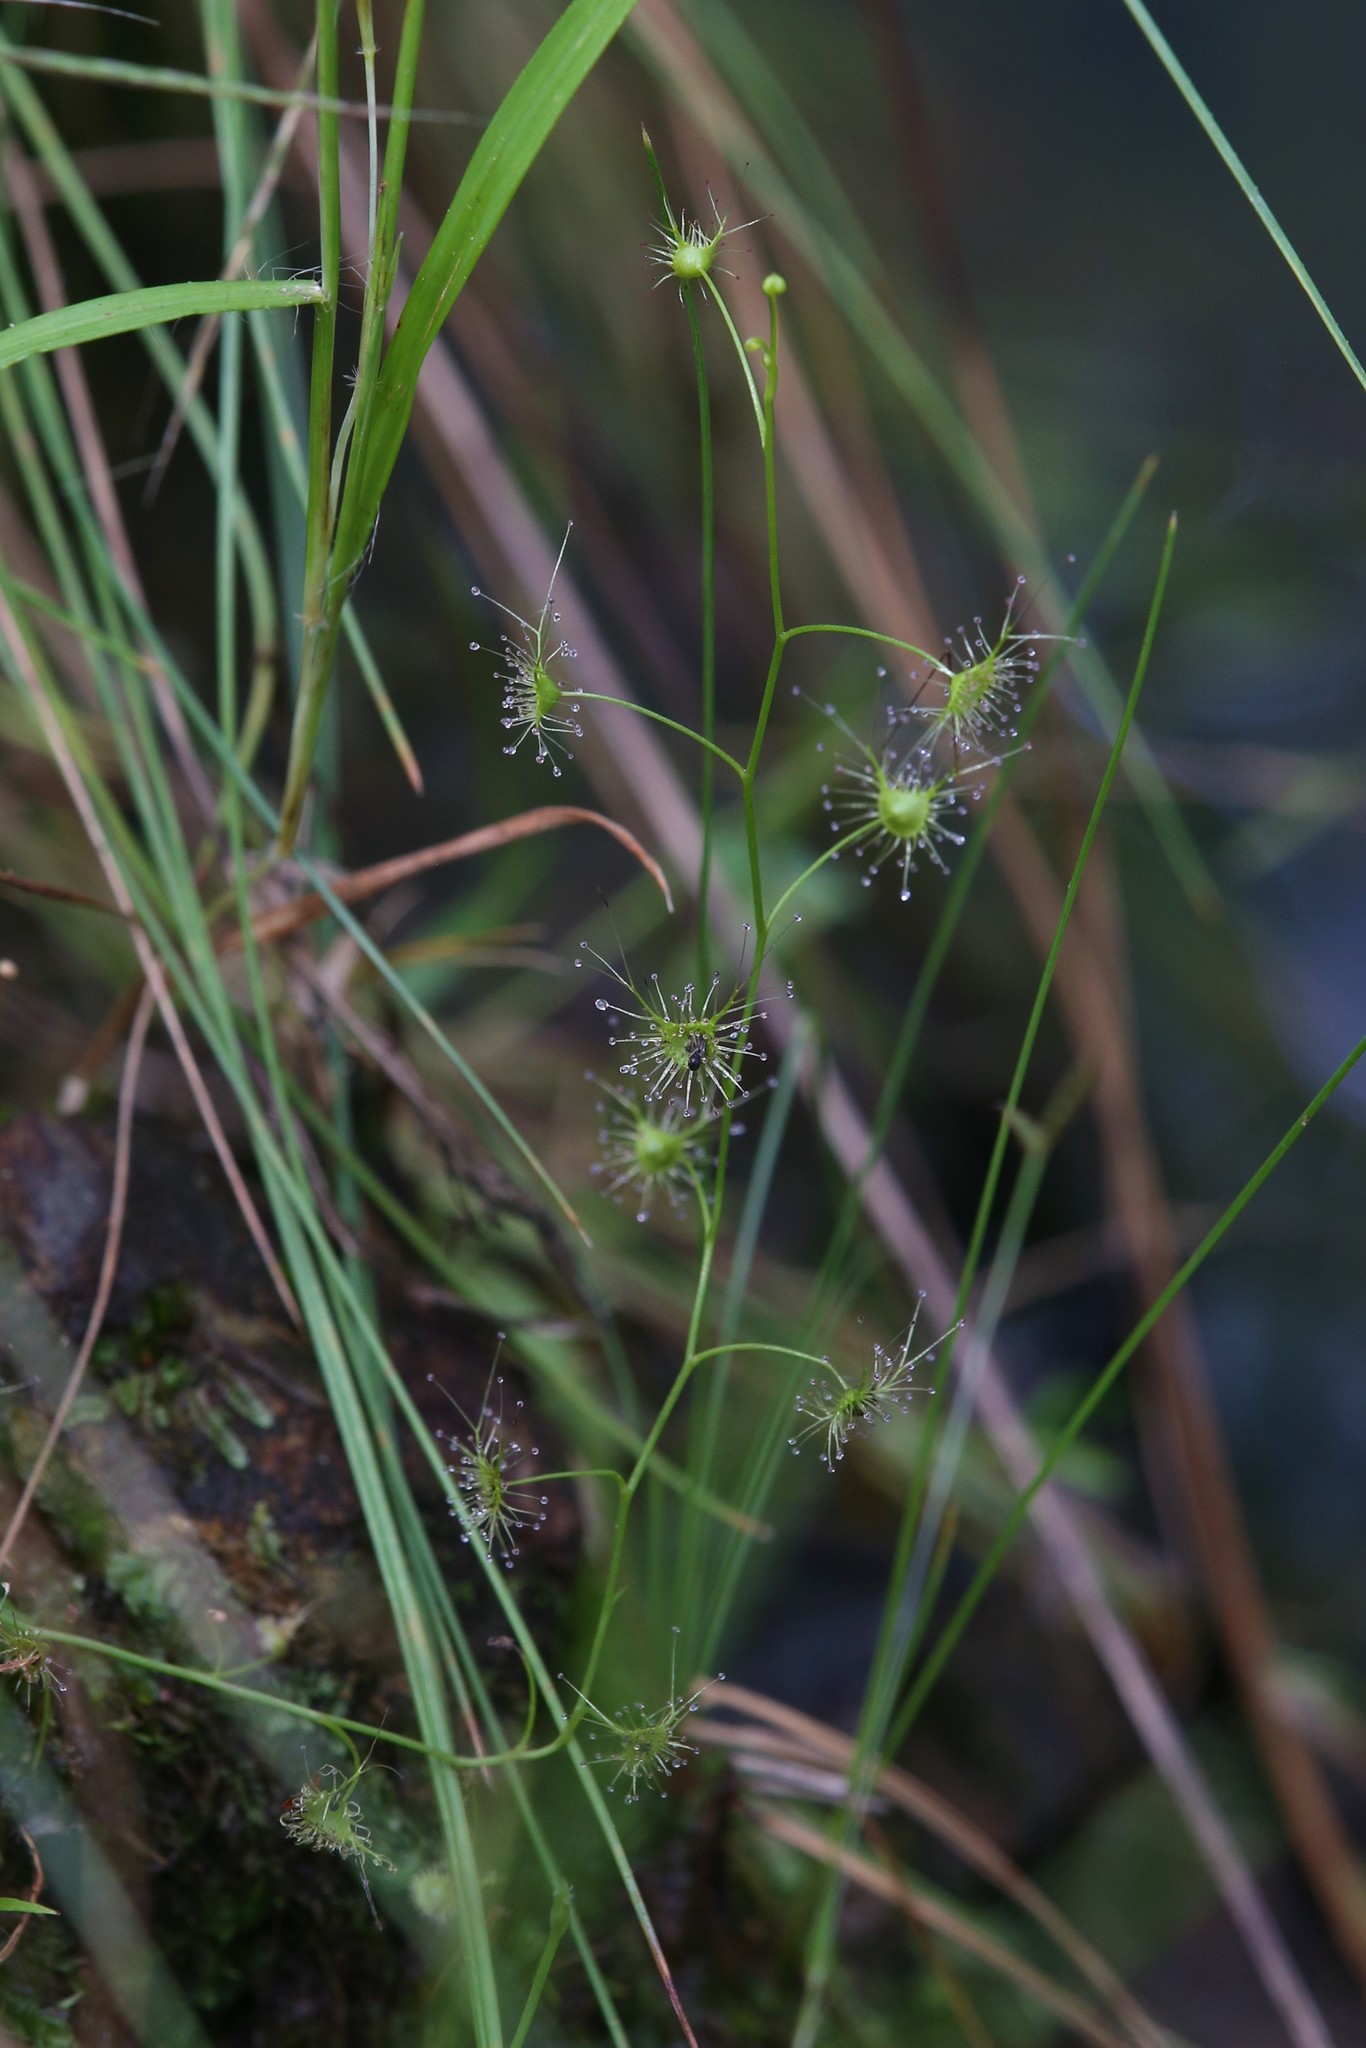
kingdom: Plantae
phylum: Tracheophyta
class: Magnoliopsida
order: Caryophyllales
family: Droseraceae
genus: Drosera
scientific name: Drosera peltata
